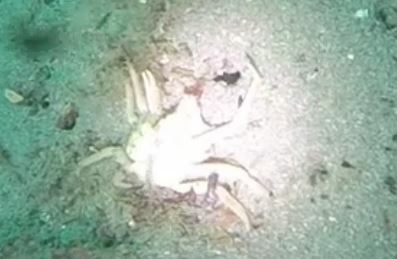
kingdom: Animalia
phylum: Arthropoda
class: Malacostraca
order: Decapoda
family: Epialtidae
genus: Pugettia
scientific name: Pugettia producta
